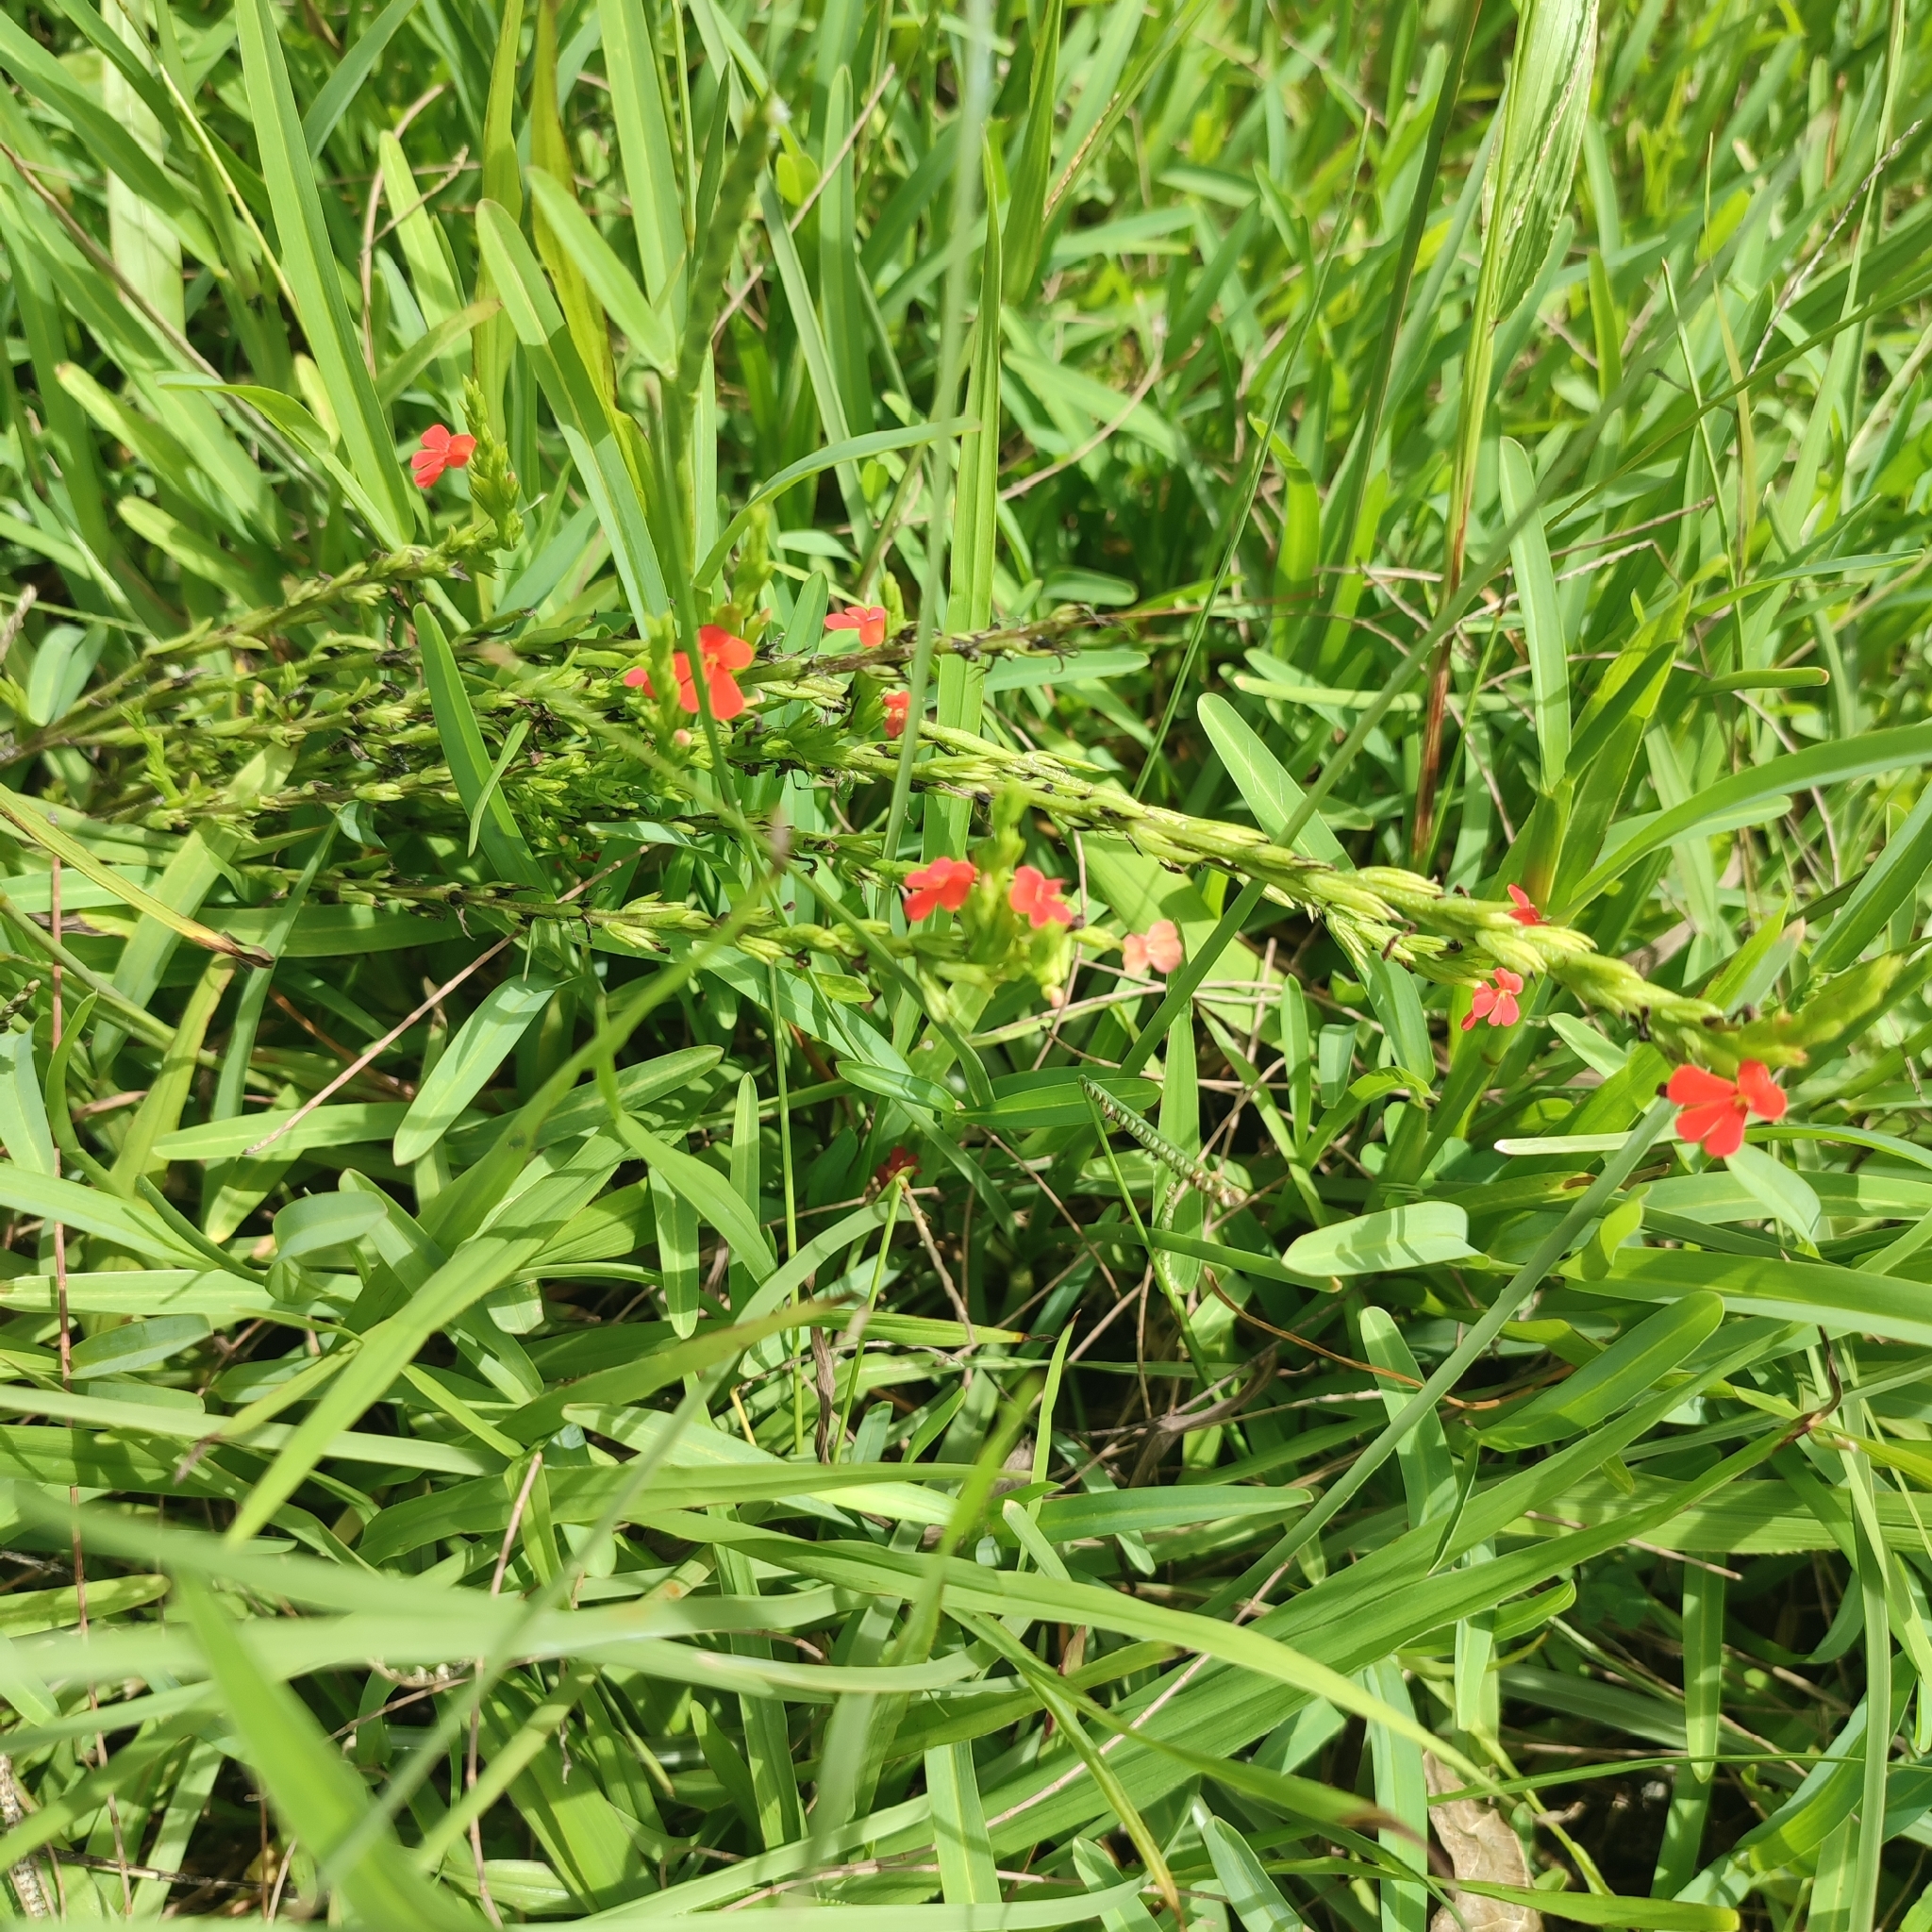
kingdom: Plantae
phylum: Tracheophyta
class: Magnoliopsida
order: Lamiales
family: Orobanchaceae
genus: Striga
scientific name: Striga asiatica
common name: Asiatic witchweed
